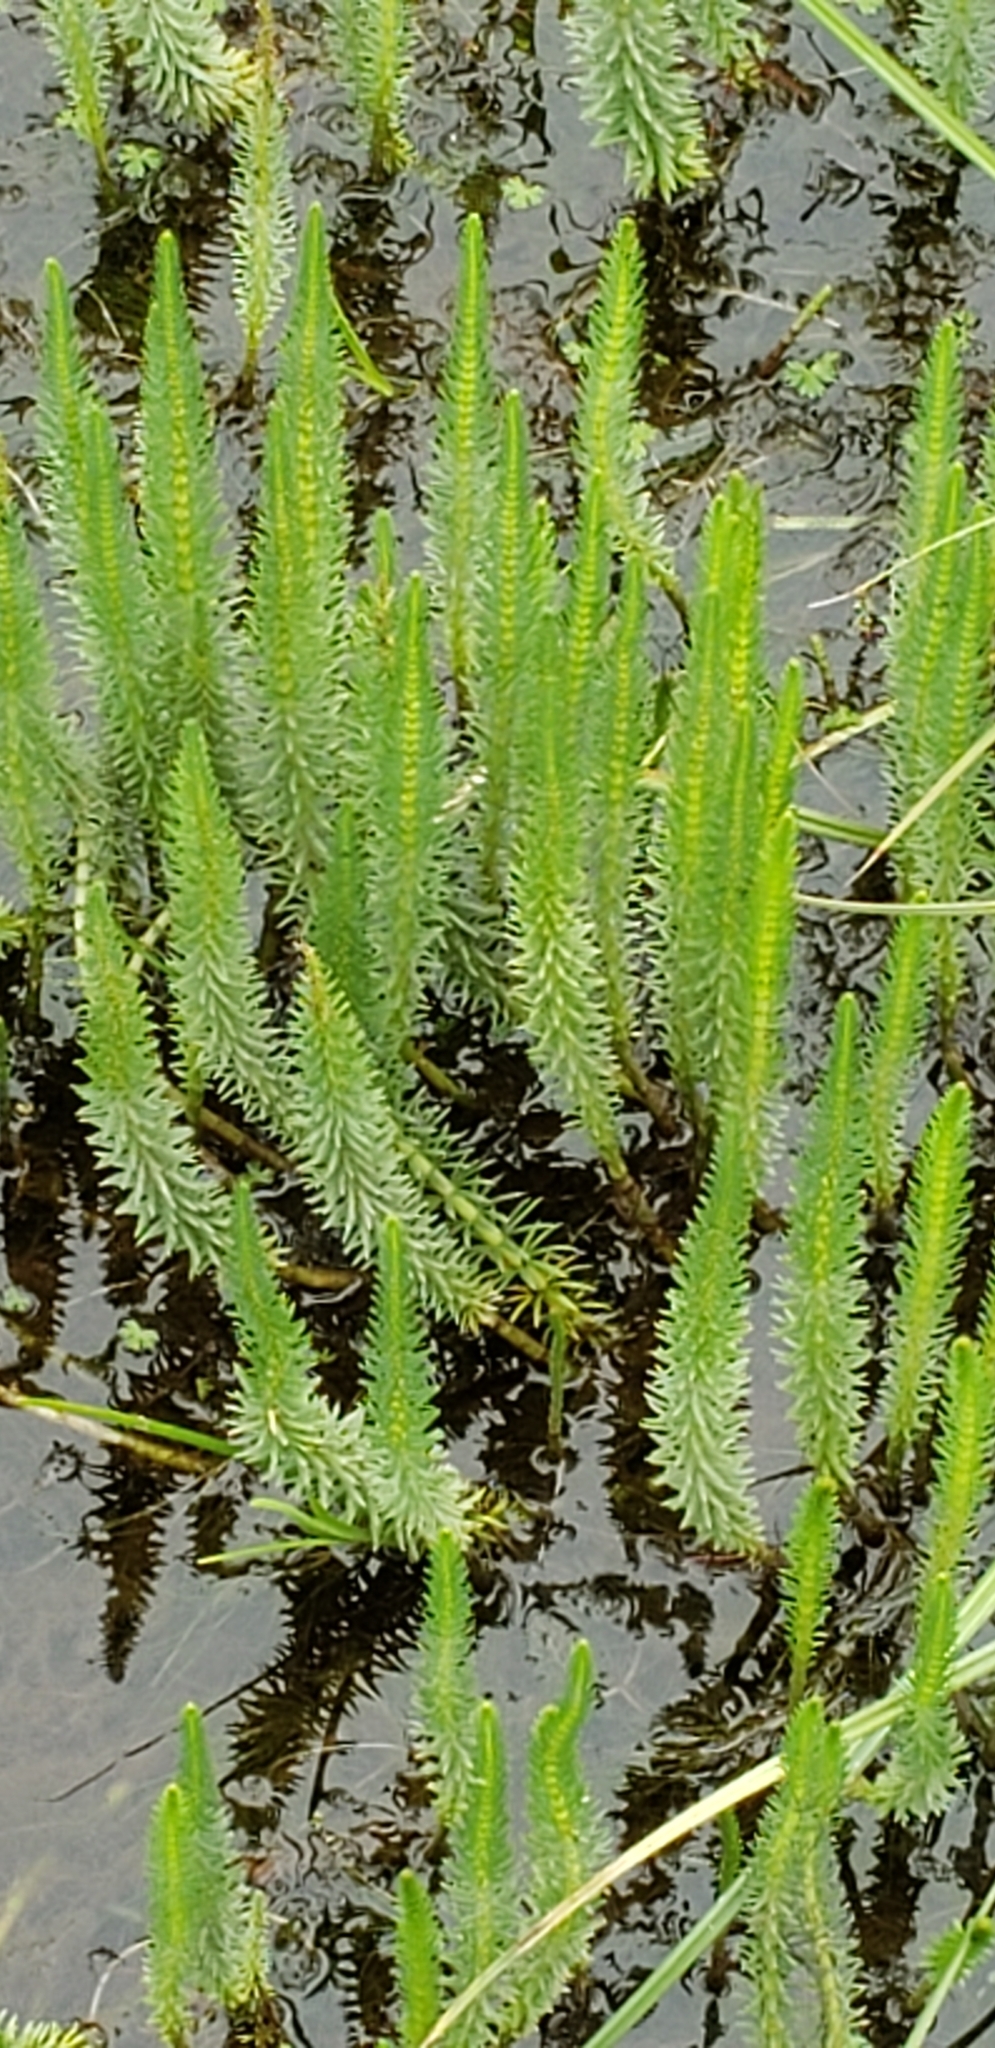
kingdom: Plantae
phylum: Tracheophyta
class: Magnoliopsida
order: Lamiales
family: Plantaginaceae
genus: Hippuris
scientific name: Hippuris vulgaris
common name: Mare's-tail
